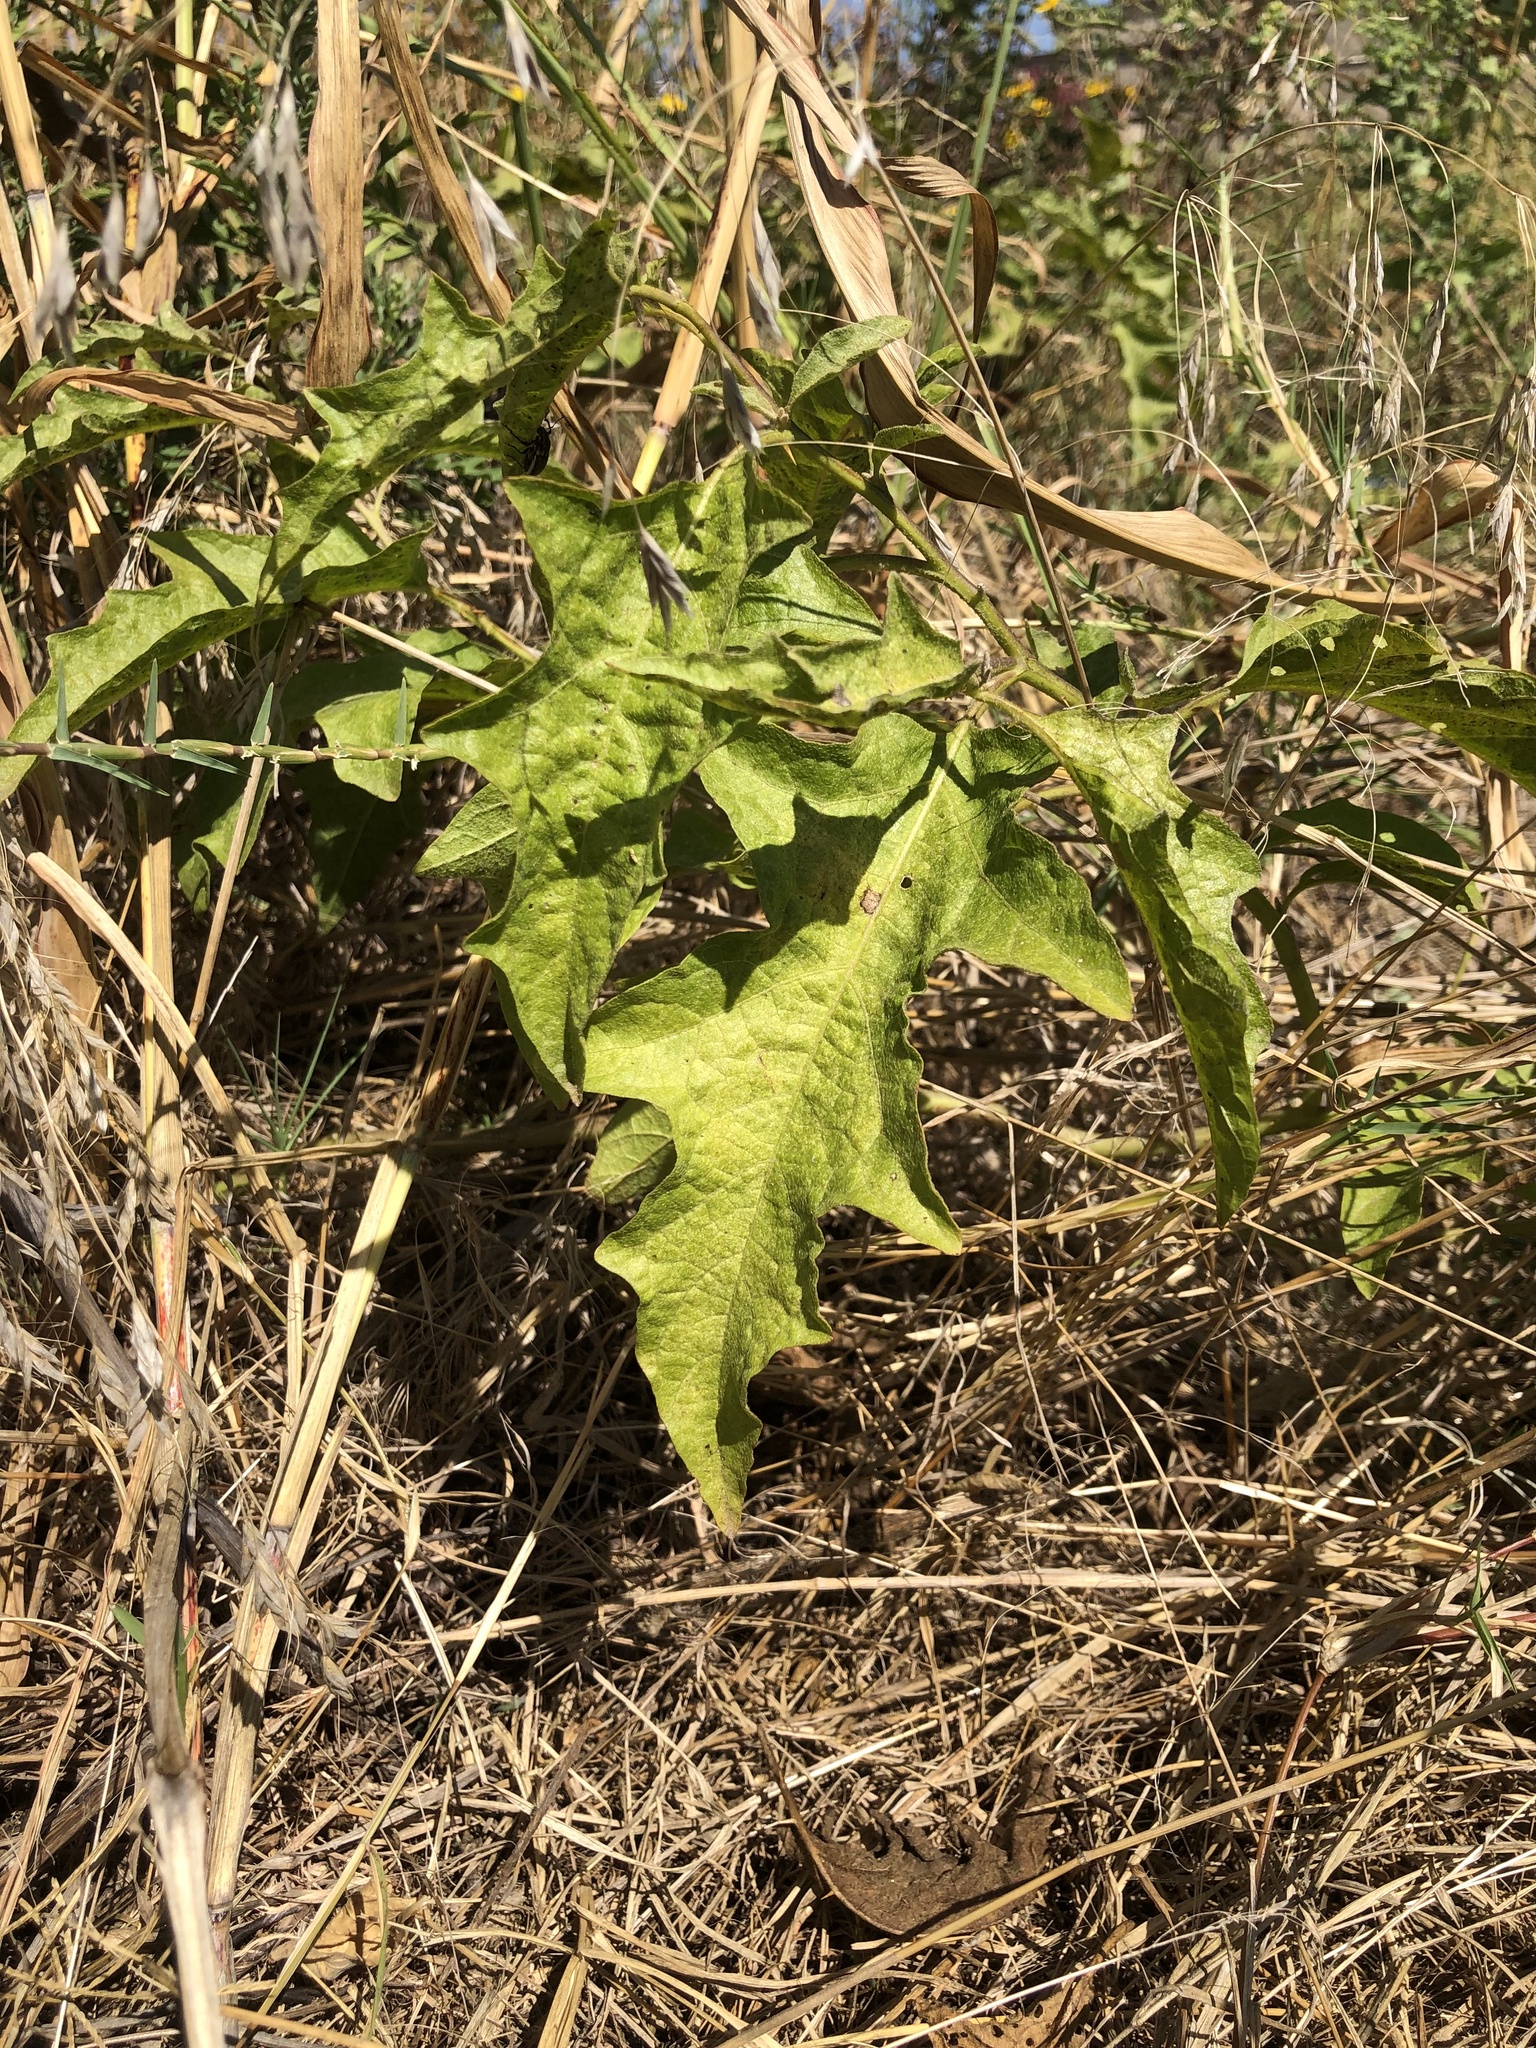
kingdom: Plantae
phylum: Tracheophyta
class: Magnoliopsida
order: Solanales
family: Solanaceae
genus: Solanum
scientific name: Solanum dimidiatum
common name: Carolina horse-nettle
